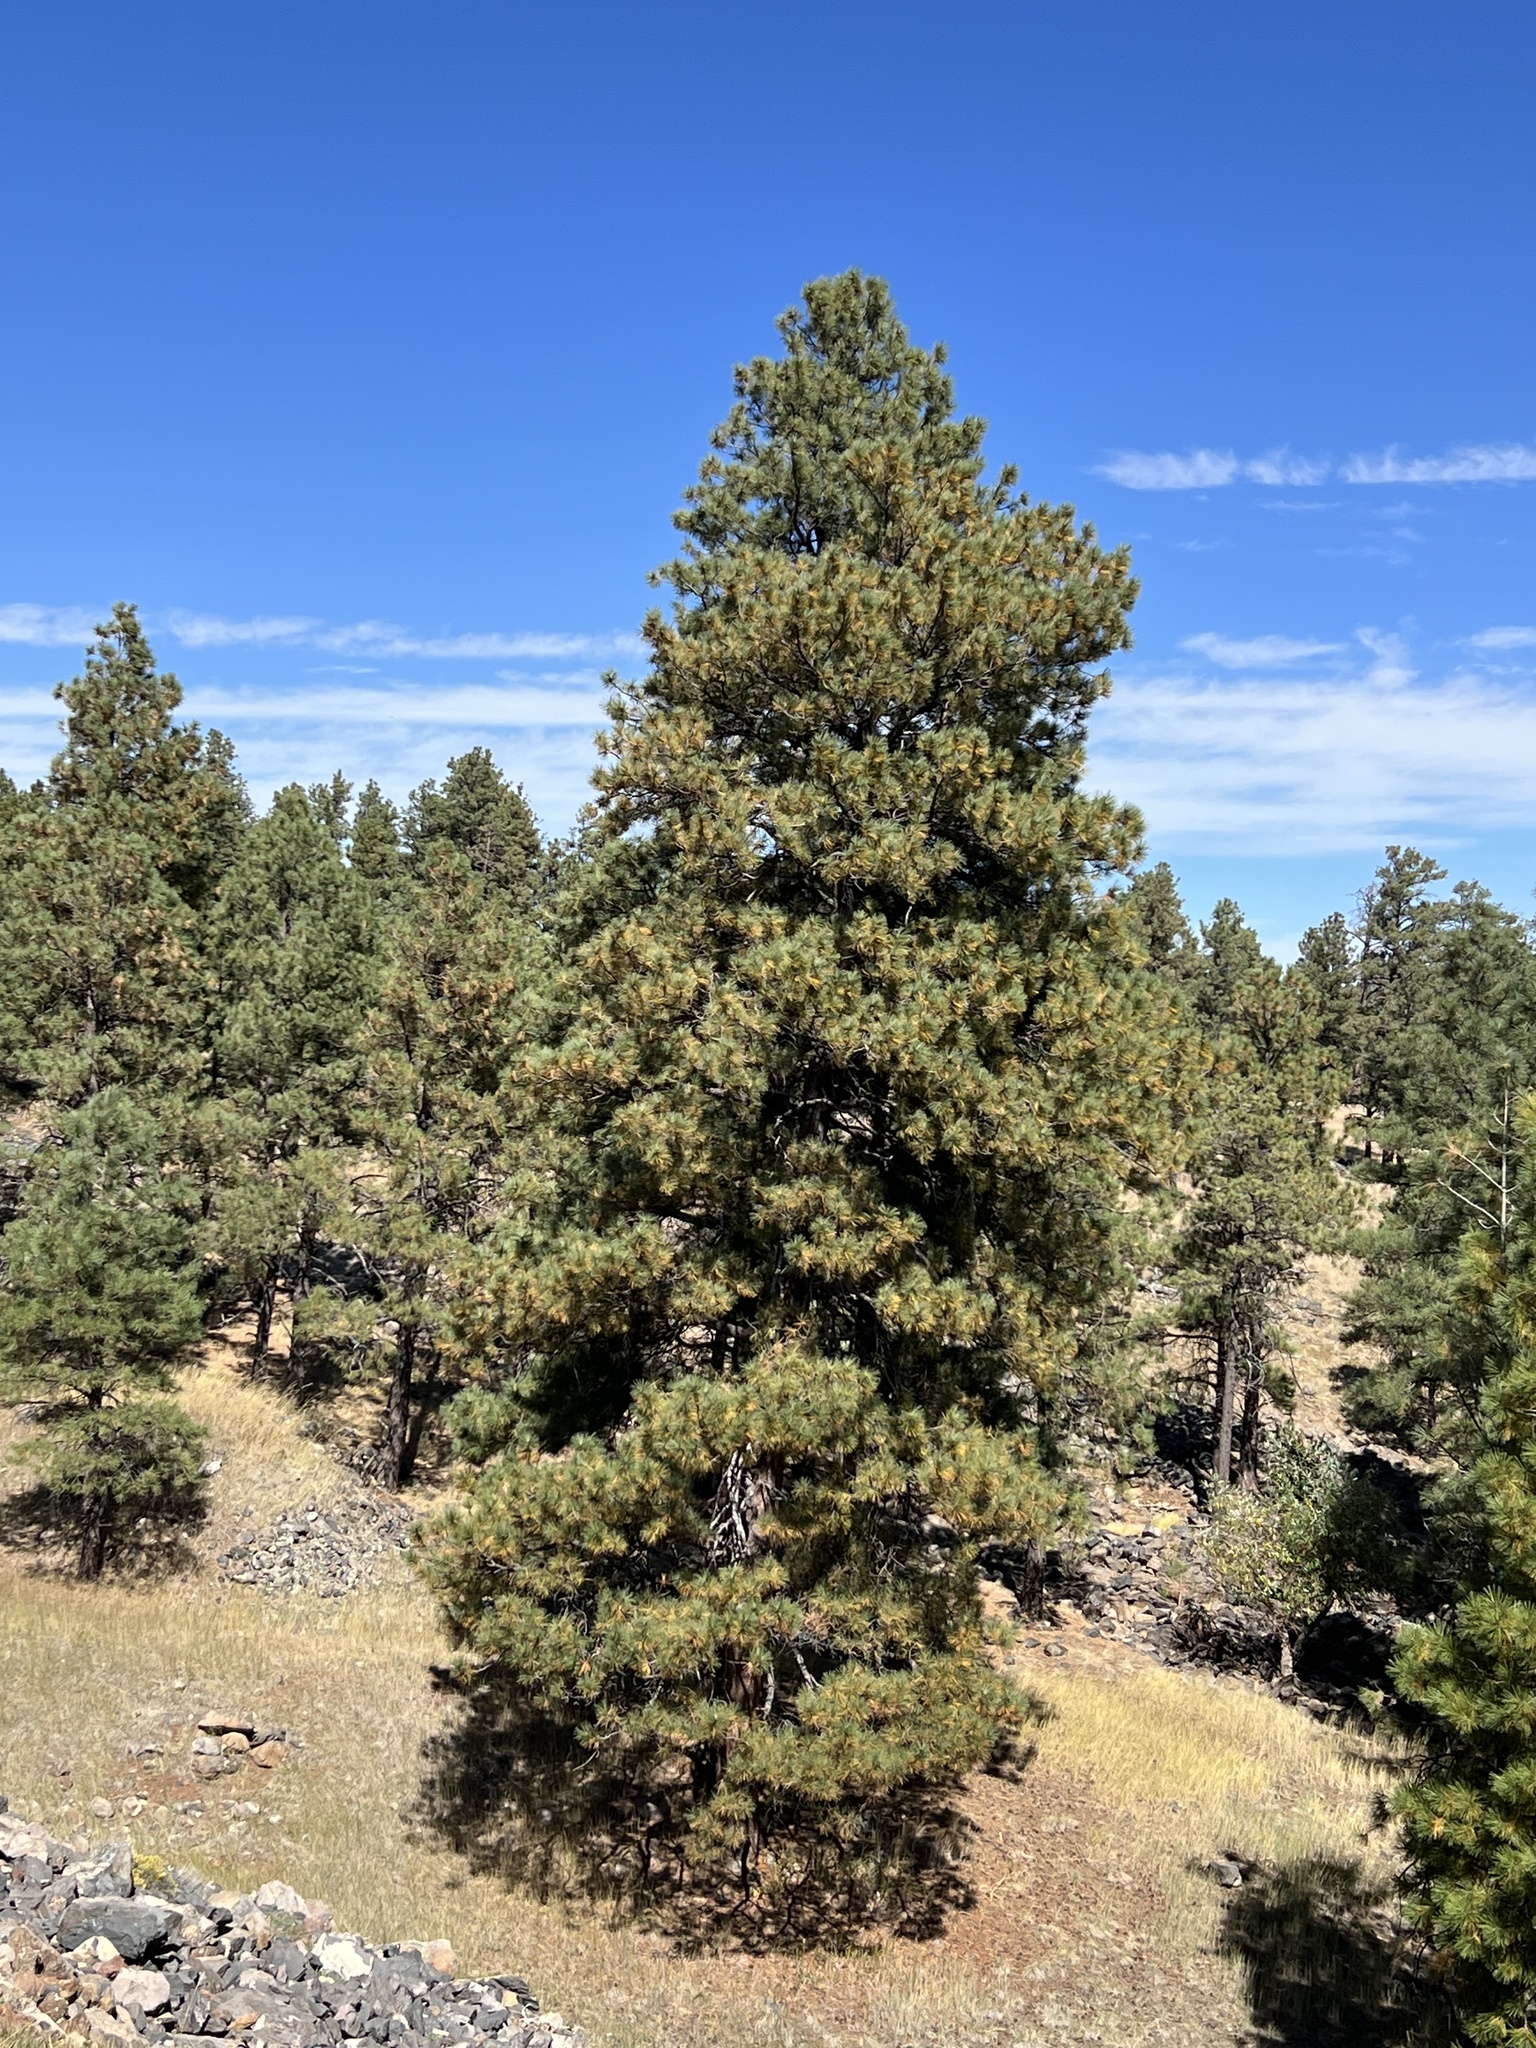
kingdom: Plantae
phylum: Tracheophyta
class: Pinopsida
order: Pinales
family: Pinaceae
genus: Pinus
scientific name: Pinus ponderosa
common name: Western yellow-pine
